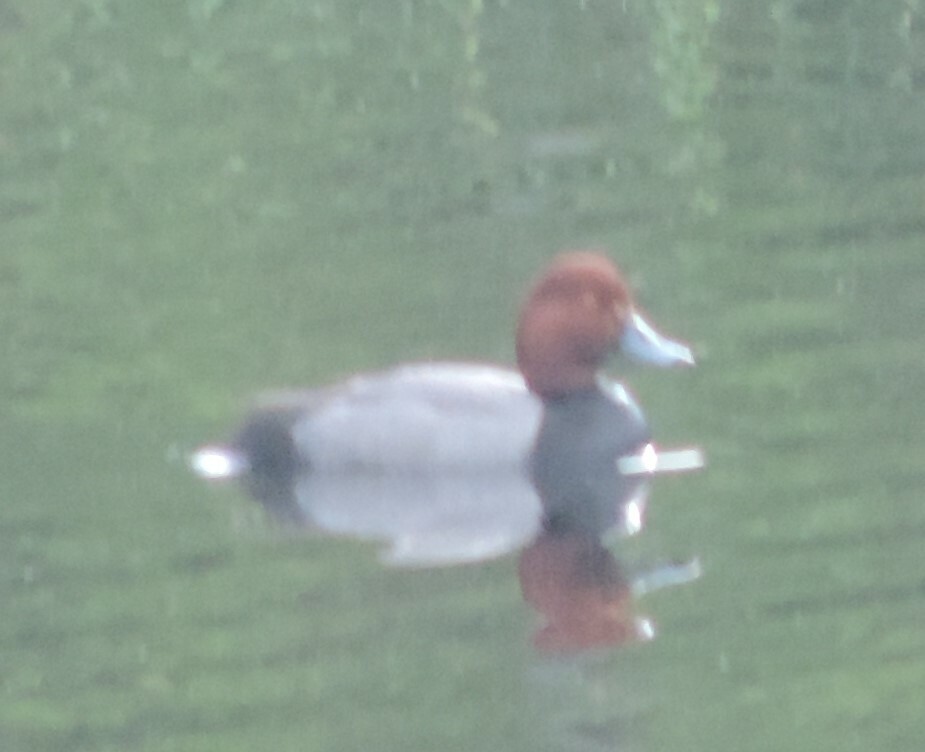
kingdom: Animalia
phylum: Chordata
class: Aves
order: Anseriformes
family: Anatidae
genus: Aythya
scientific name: Aythya americana
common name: Redhead
